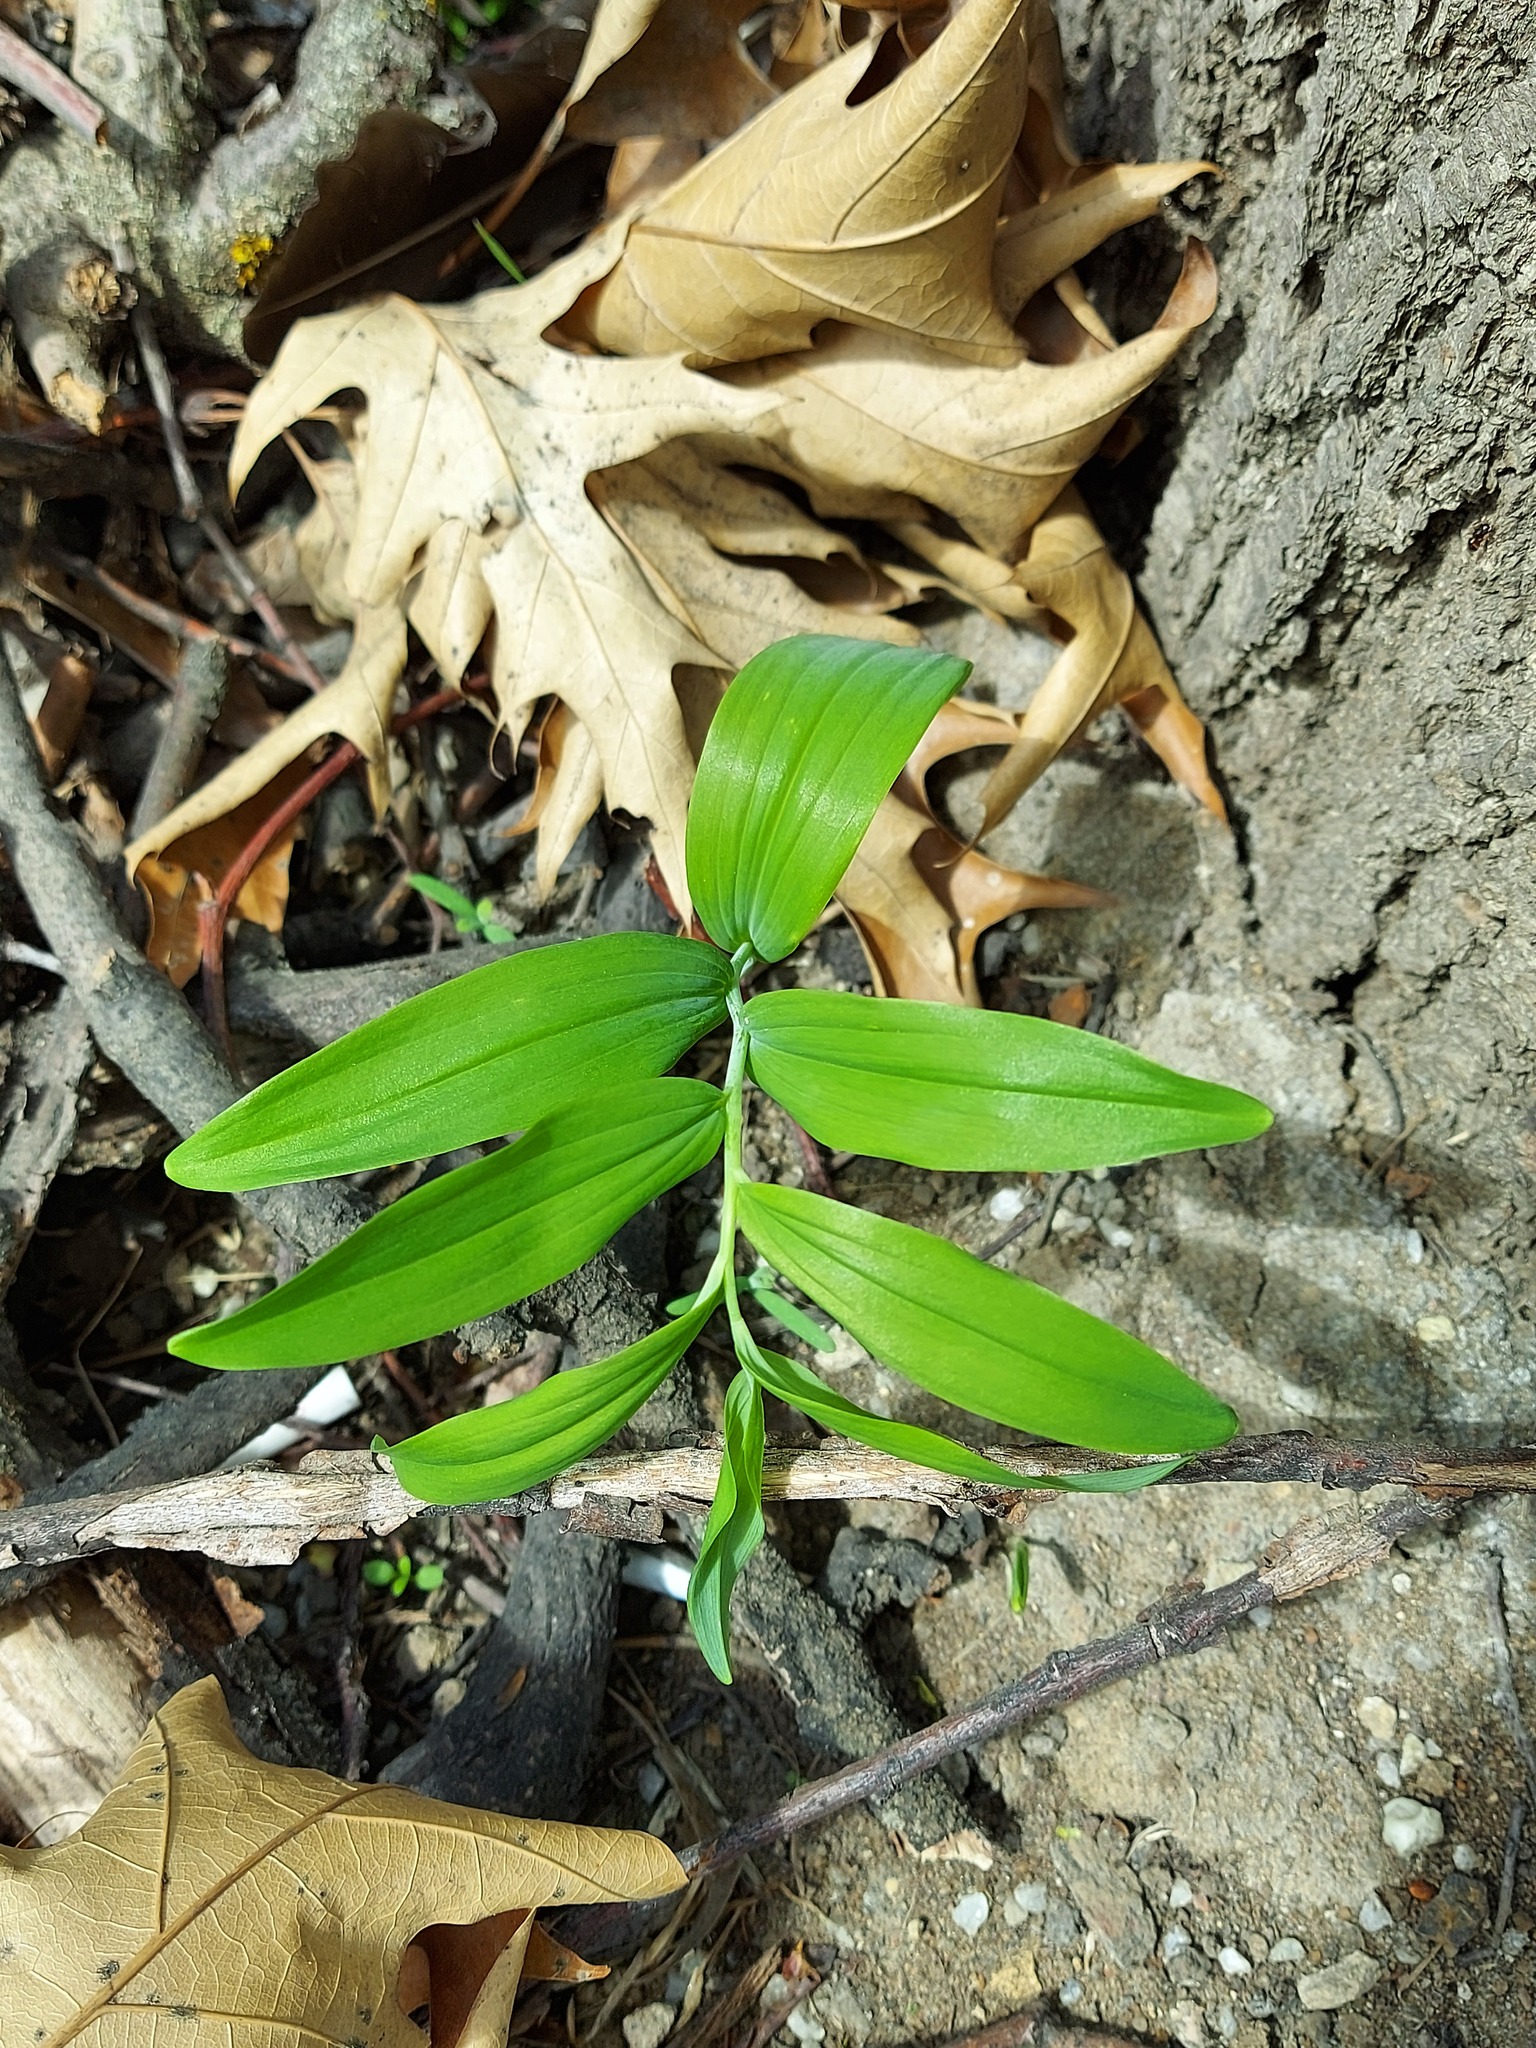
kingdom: Plantae
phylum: Tracheophyta
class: Liliopsida
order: Asparagales
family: Asparagaceae
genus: Polygonatum
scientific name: Polygonatum multiflorum
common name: Solomon's-seal
